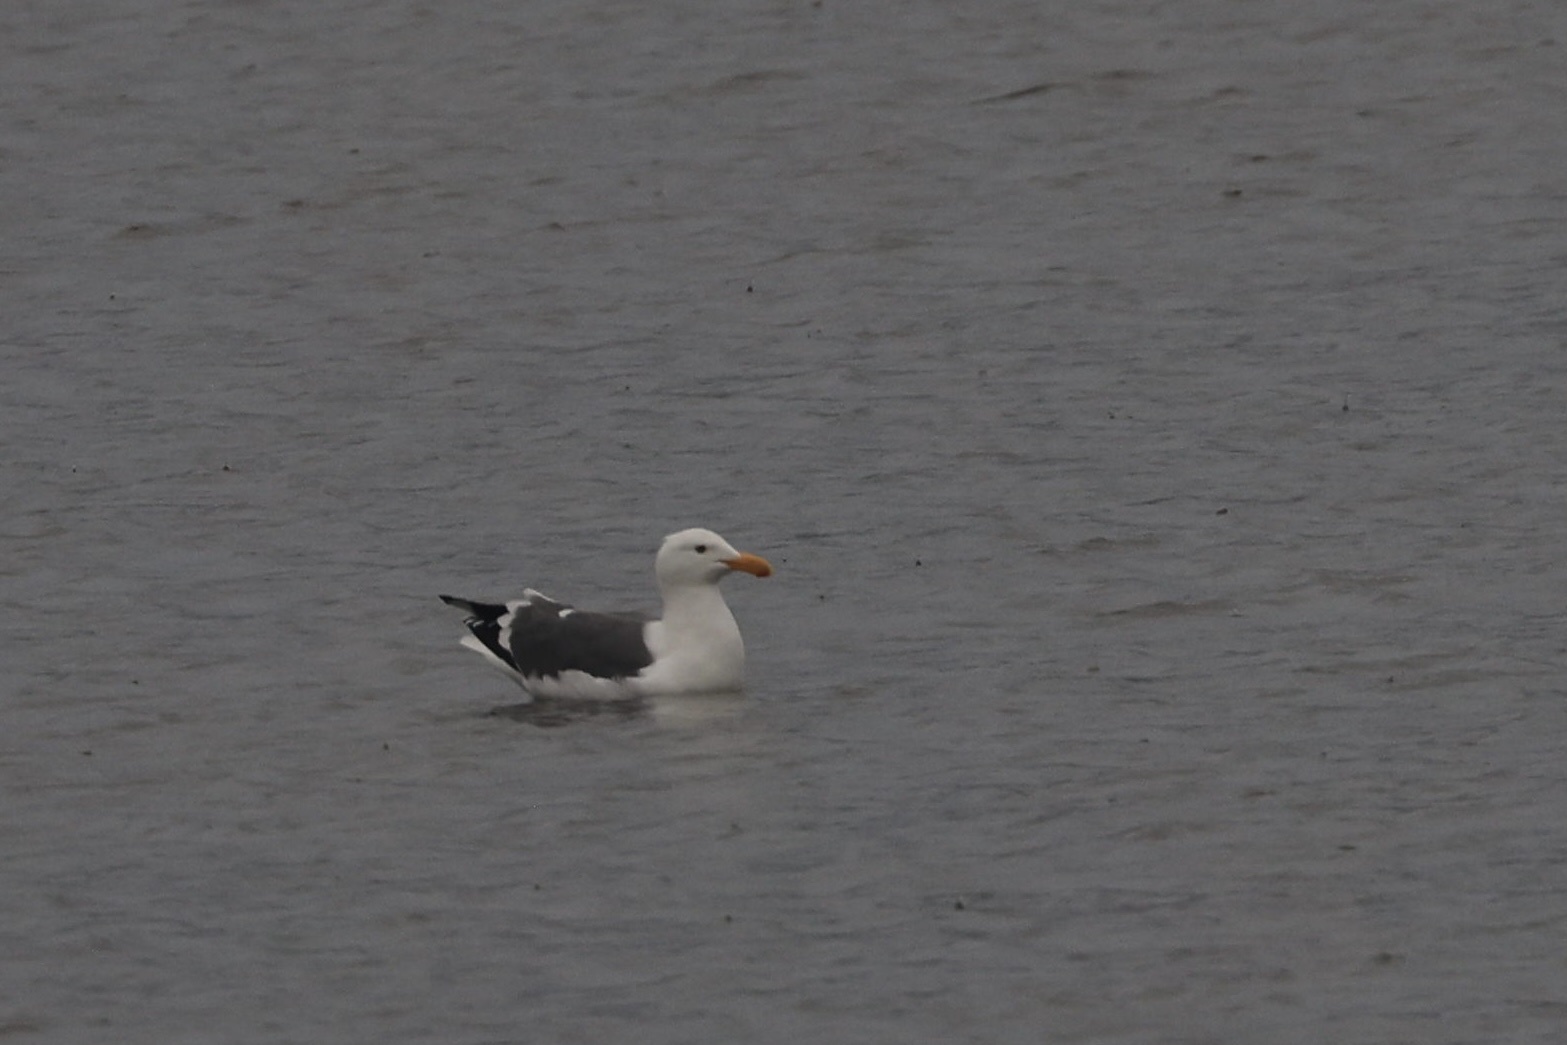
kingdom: Animalia
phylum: Chordata
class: Aves
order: Charadriiformes
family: Laridae
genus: Larus
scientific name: Larus occidentalis
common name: Western gull
